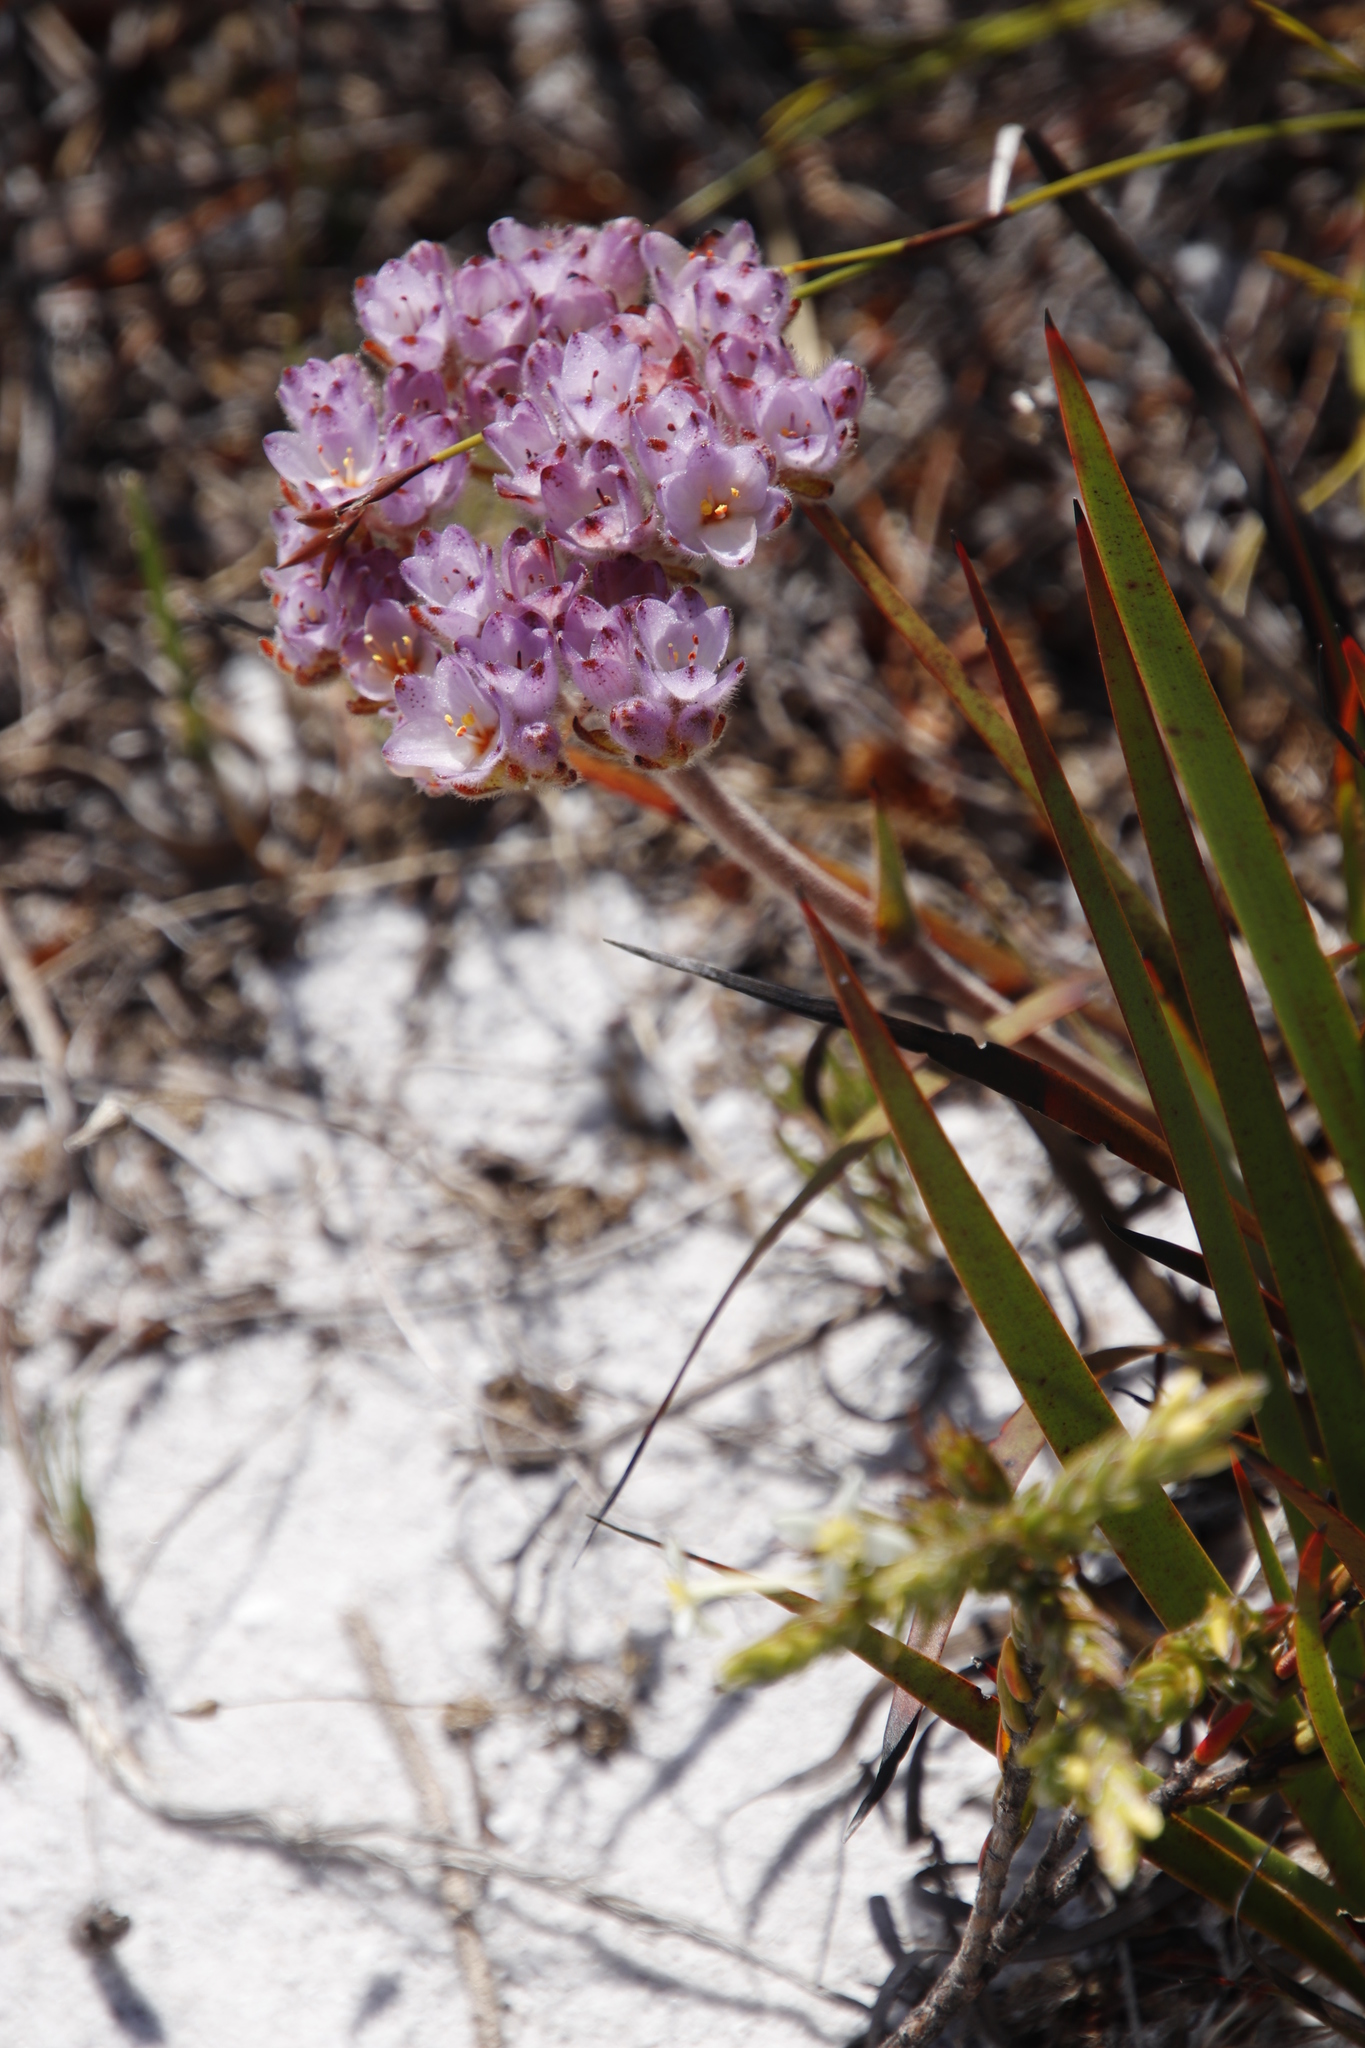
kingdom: Plantae
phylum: Tracheophyta
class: Liliopsida
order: Commelinales
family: Haemodoraceae
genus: Dilatris
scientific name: Dilatris pillansii
